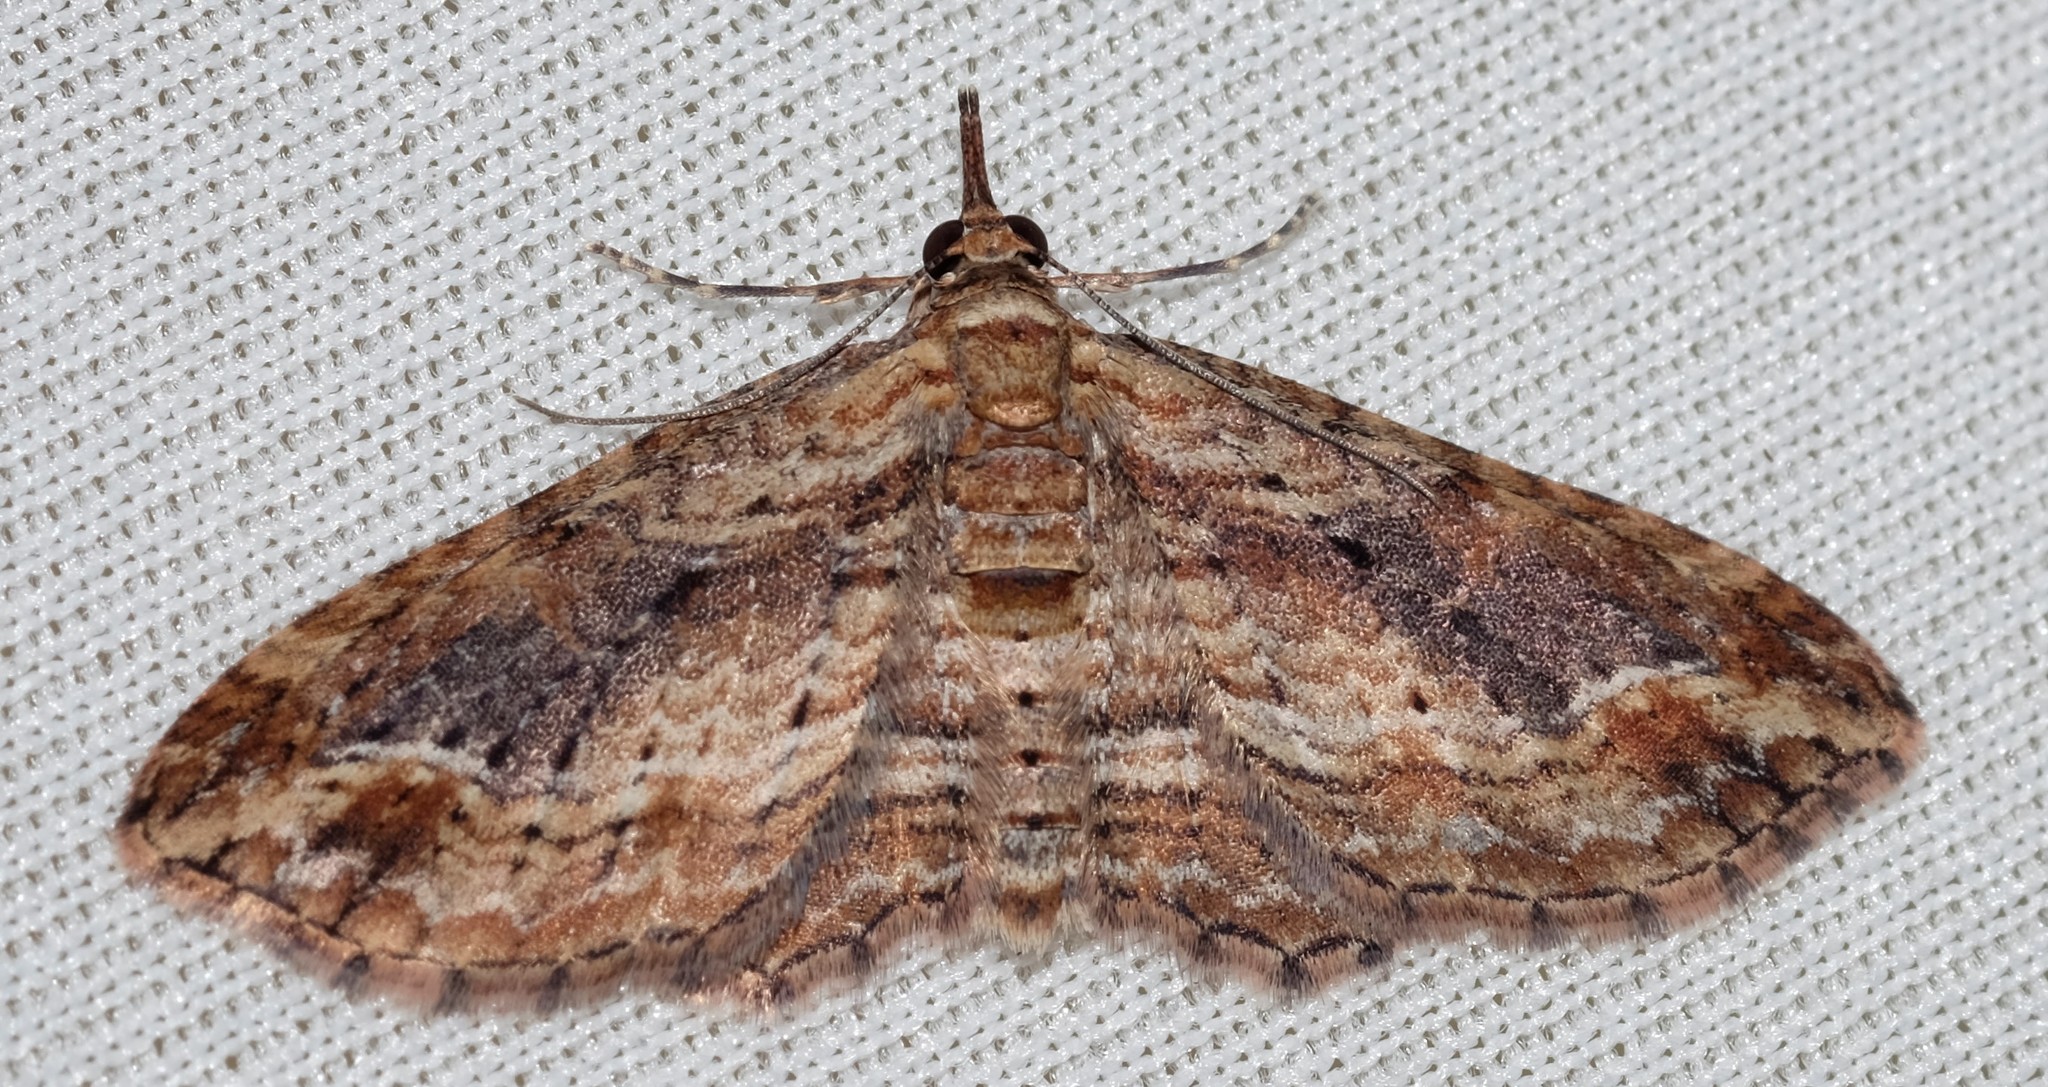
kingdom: Animalia
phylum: Arthropoda
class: Insecta
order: Lepidoptera
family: Geometridae
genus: Chloroclystis
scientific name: Chloroclystis filata
